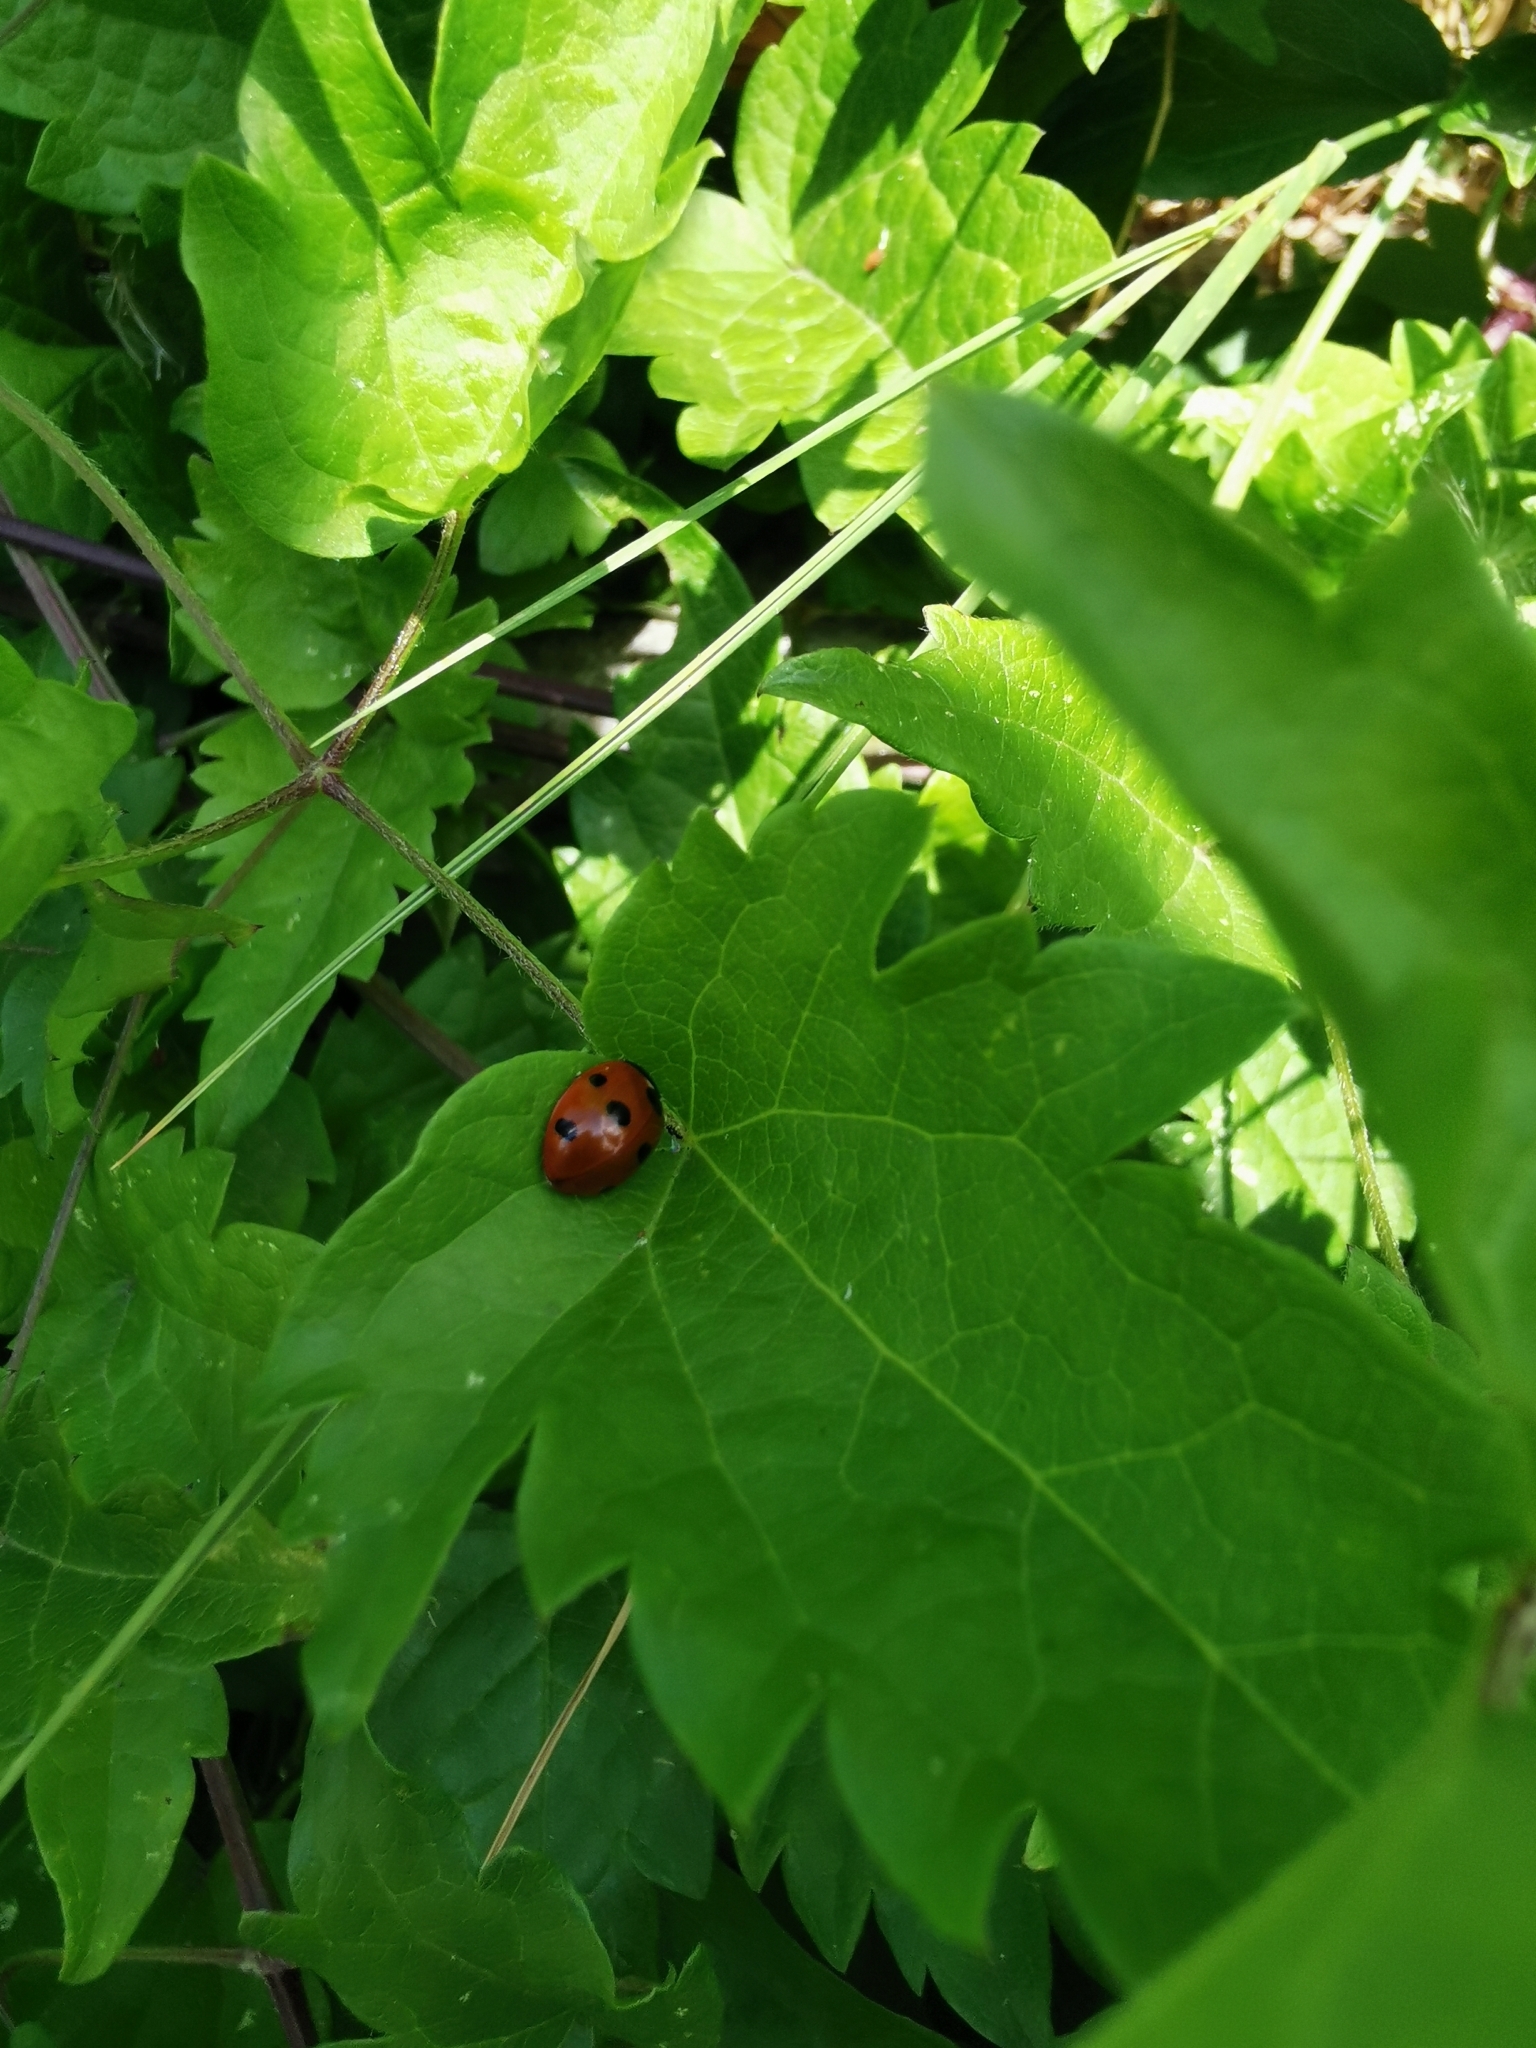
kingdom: Animalia
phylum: Arthropoda
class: Insecta
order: Coleoptera
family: Coccinellidae
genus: Coccinella
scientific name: Coccinella septempunctata
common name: Sevenspotted lady beetle
